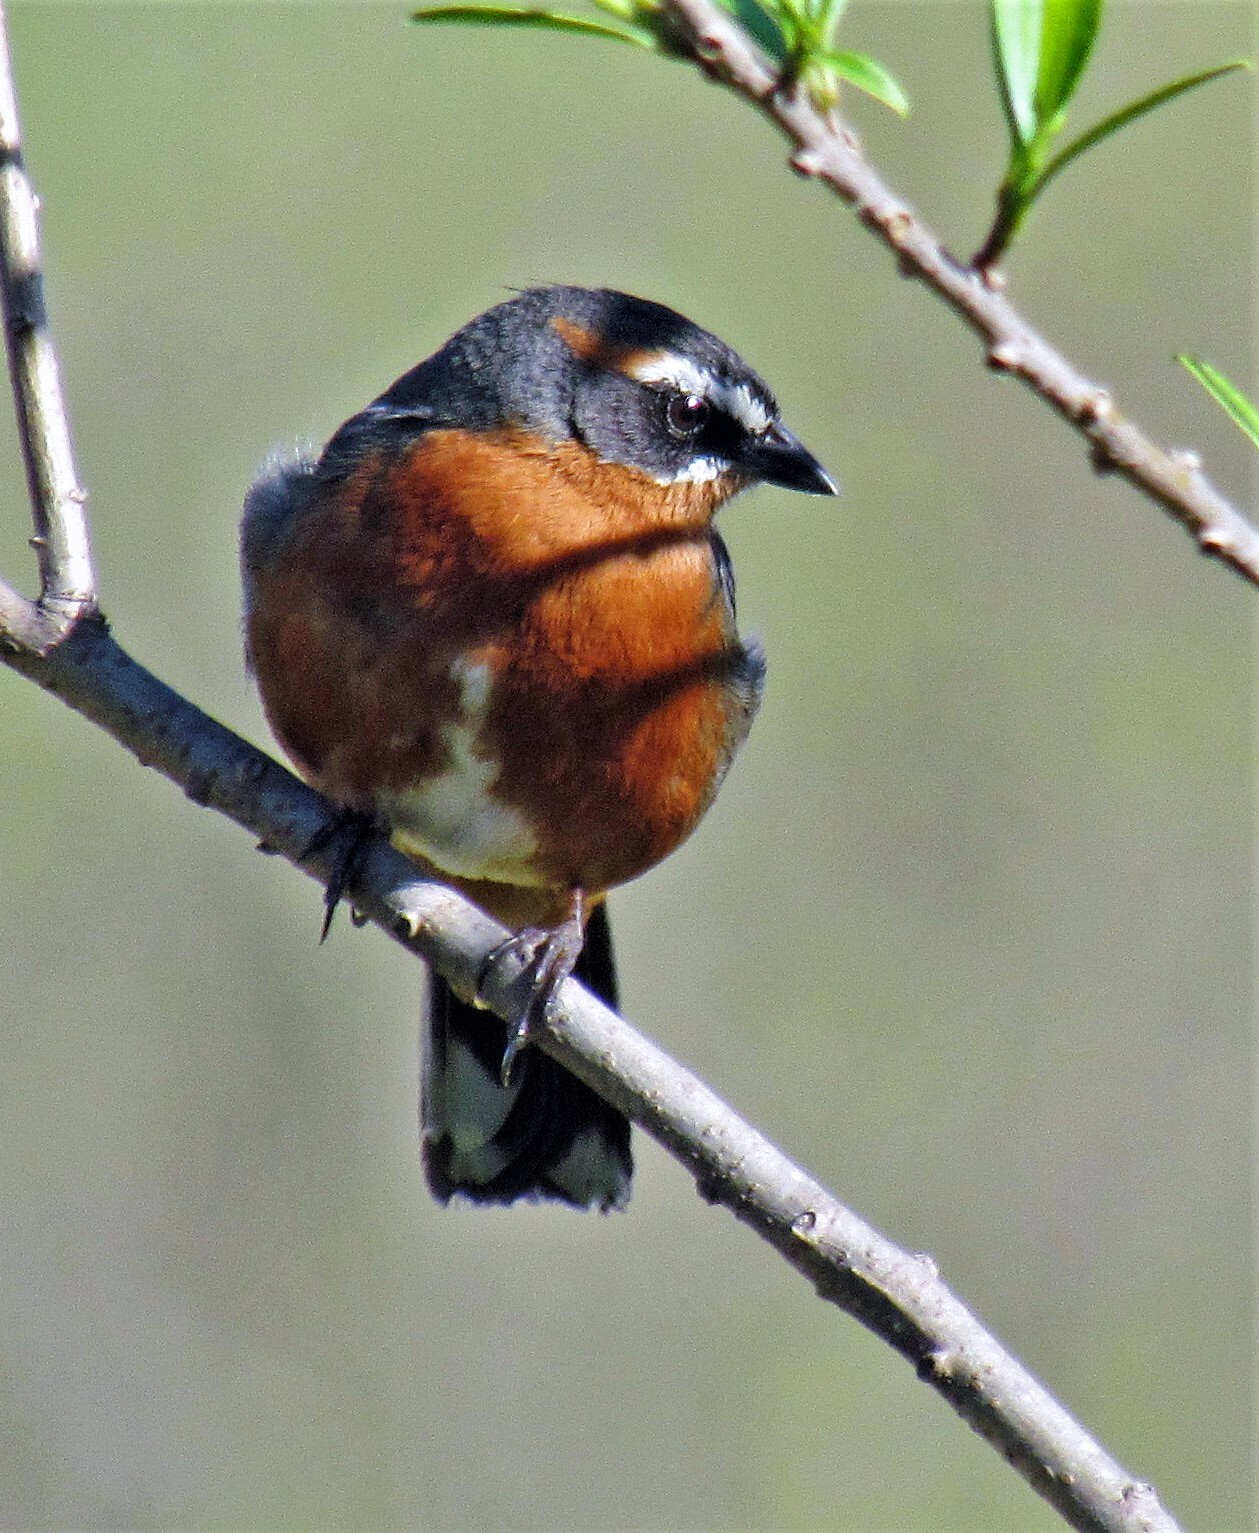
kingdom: Animalia
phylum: Chordata
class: Aves
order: Passeriformes
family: Thraupidae
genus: Poospiza
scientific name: Poospiza nigrorufa
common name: Black-and-rufous warbling finch
